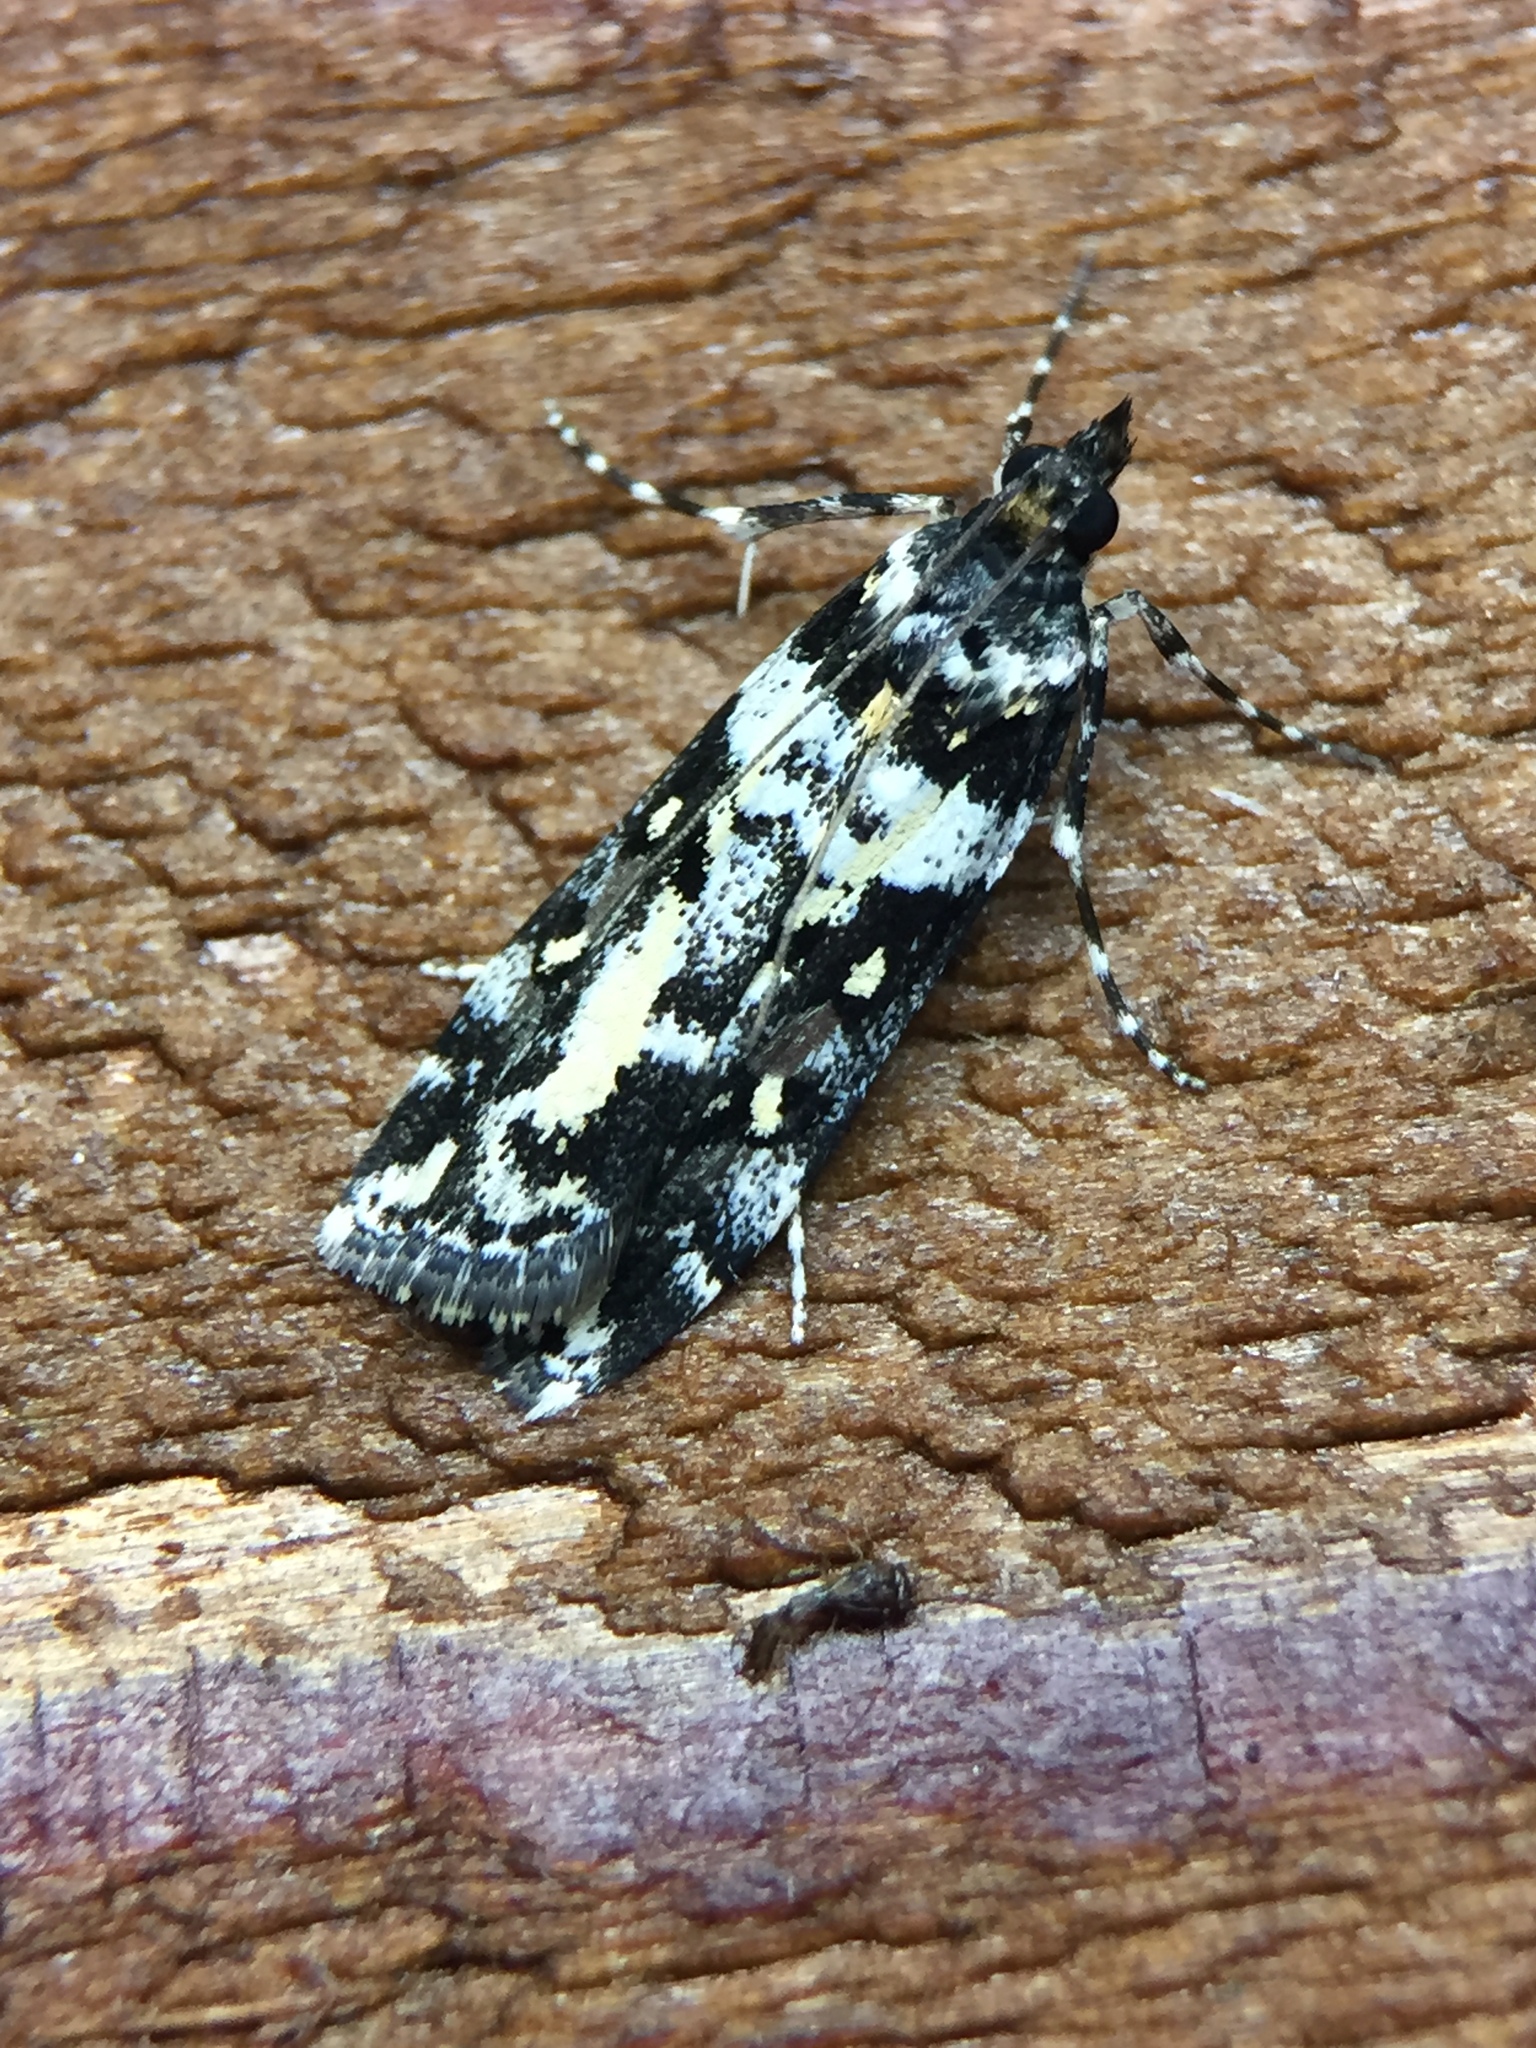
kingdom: Animalia
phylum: Arthropoda
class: Insecta
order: Lepidoptera
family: Crambidae
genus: Eudonia
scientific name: Eudonia diphtheralis
